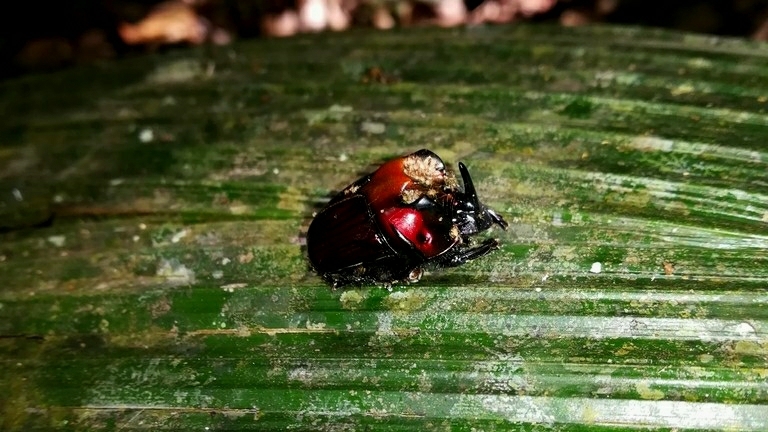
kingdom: Animalia
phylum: Arthropoda
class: Insecta
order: Coleoptera
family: Scarabaeidae
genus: Oxysternon
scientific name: Oxysternon festivum
